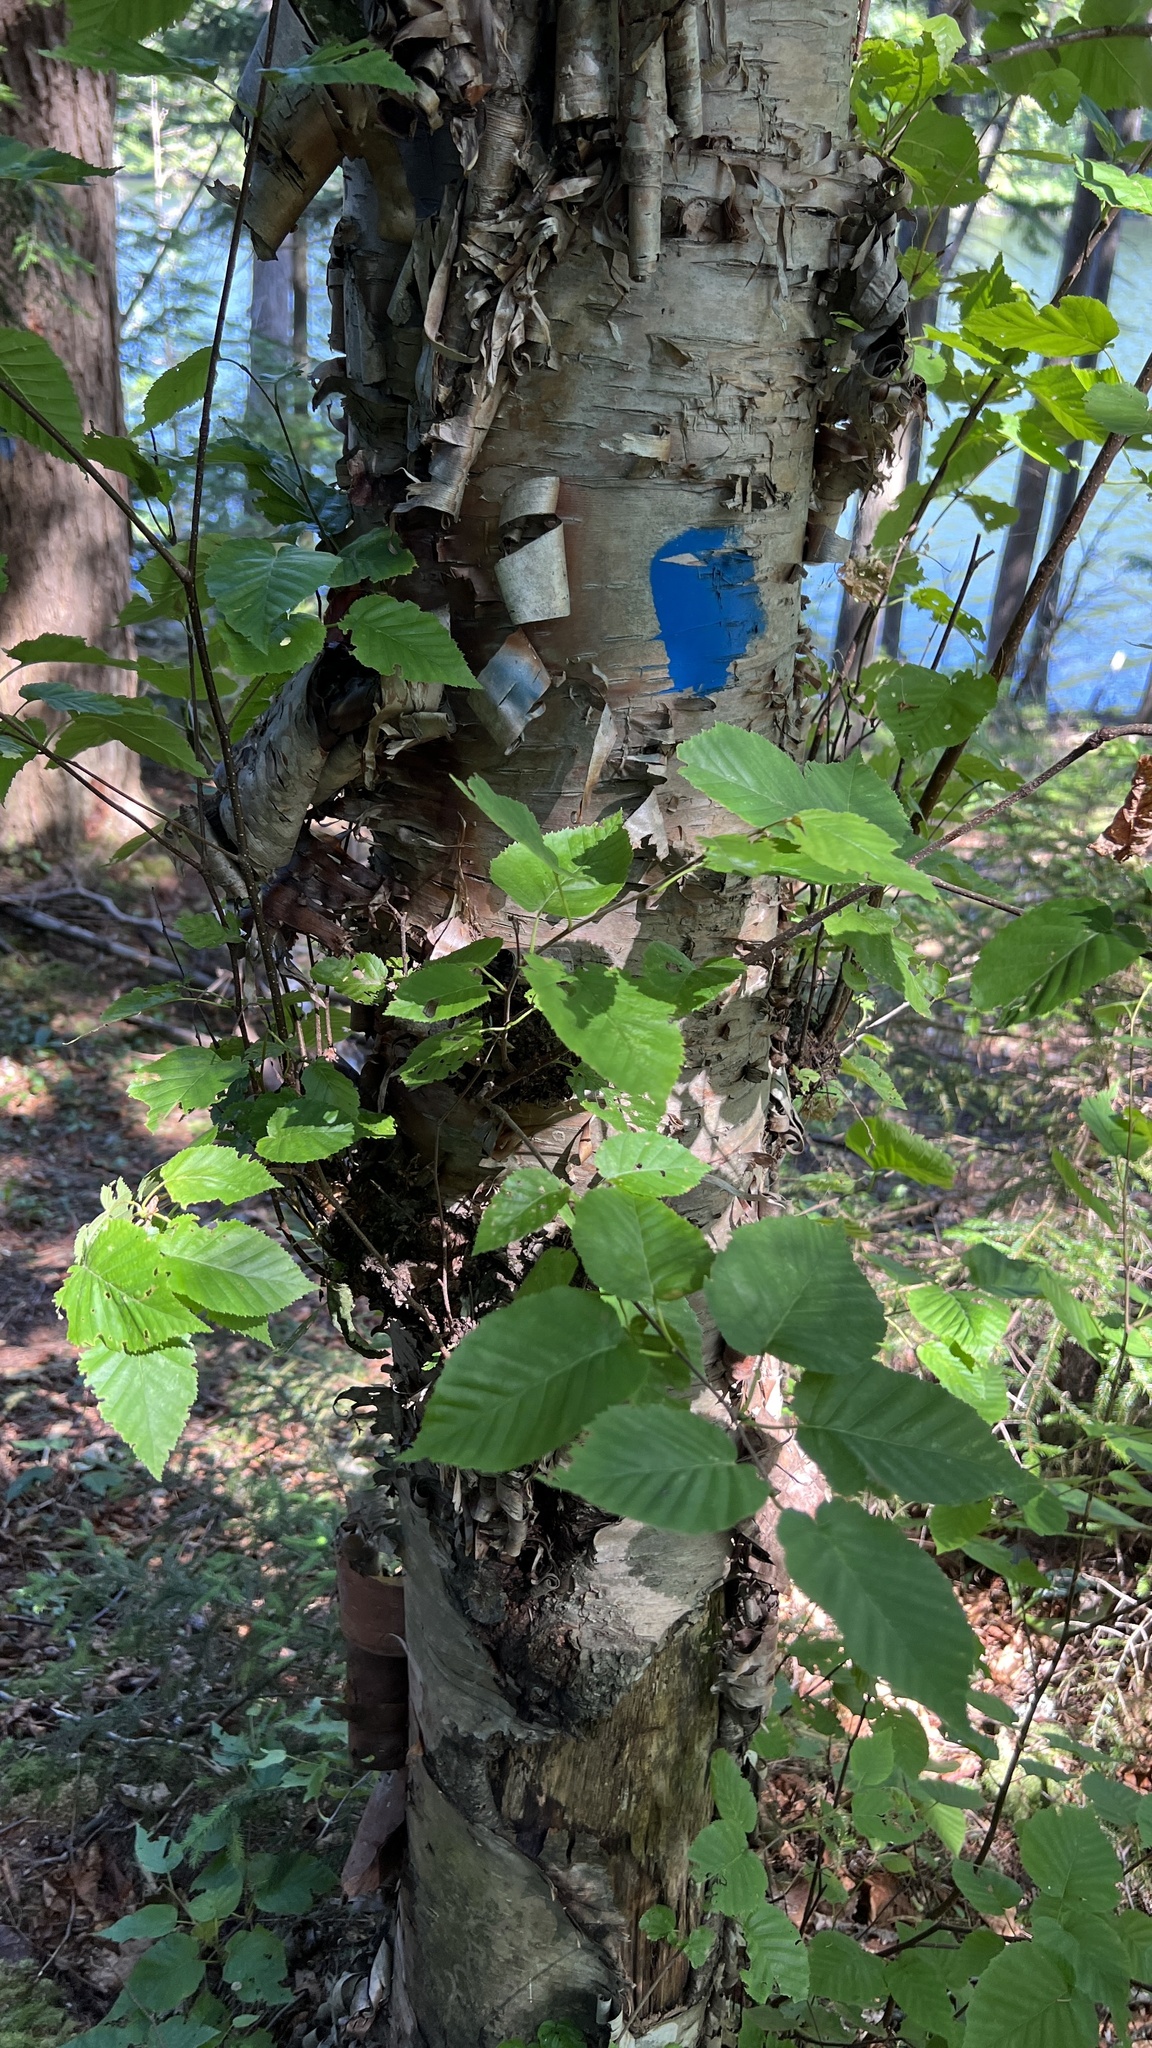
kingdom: Plantae
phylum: Tracheophyta
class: Magnoliopsida
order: Fagales
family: Betulaceae
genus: Betula
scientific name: Betula cordifolia
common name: Mountain white birch
